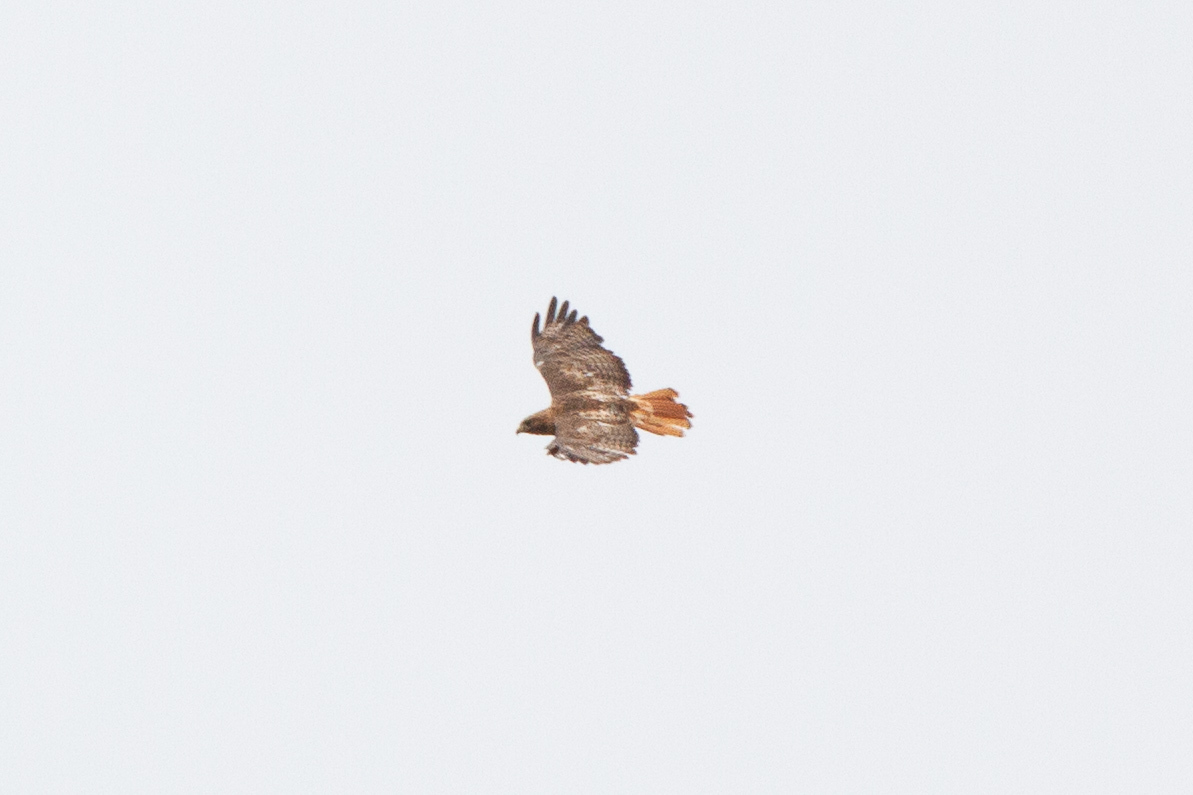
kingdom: Animalia
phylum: Chordata
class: Aves
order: Accipitriformes
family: Accipitridae
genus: Buteo
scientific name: Buteo jamaicensis
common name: Red-tailed hawk
